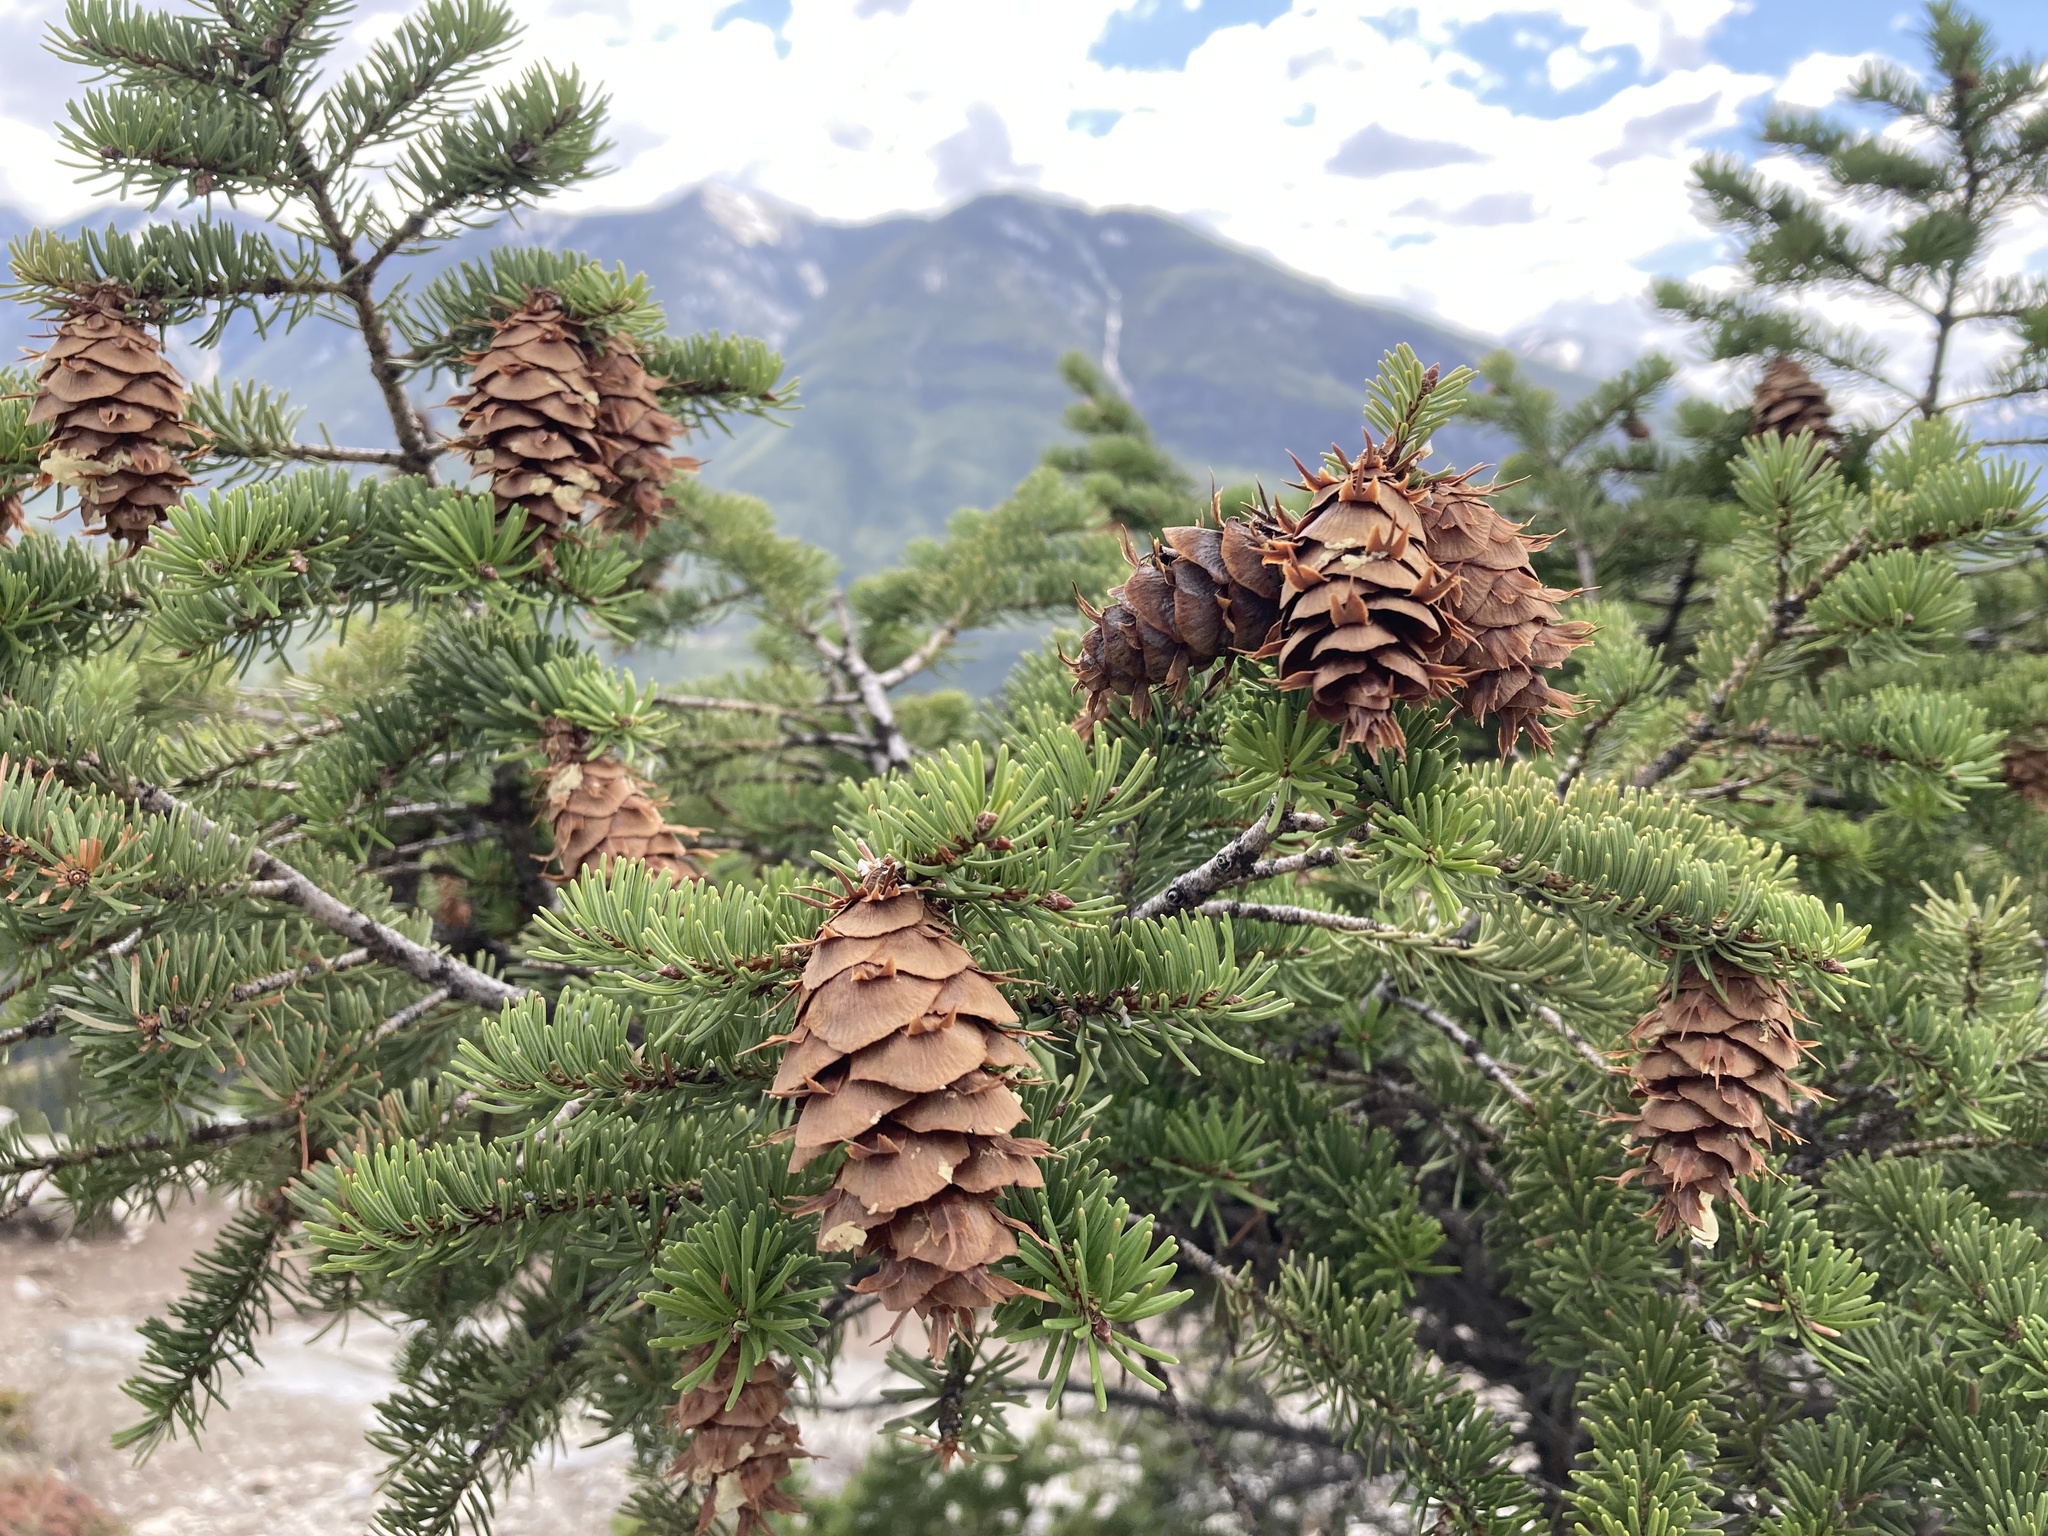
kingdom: Plantae
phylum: Tracheophyta
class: Pinopsida
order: Pinales
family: Pinaceae
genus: Pseudotsuga
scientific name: Pseudotsuga menziesii
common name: Douglas fir
